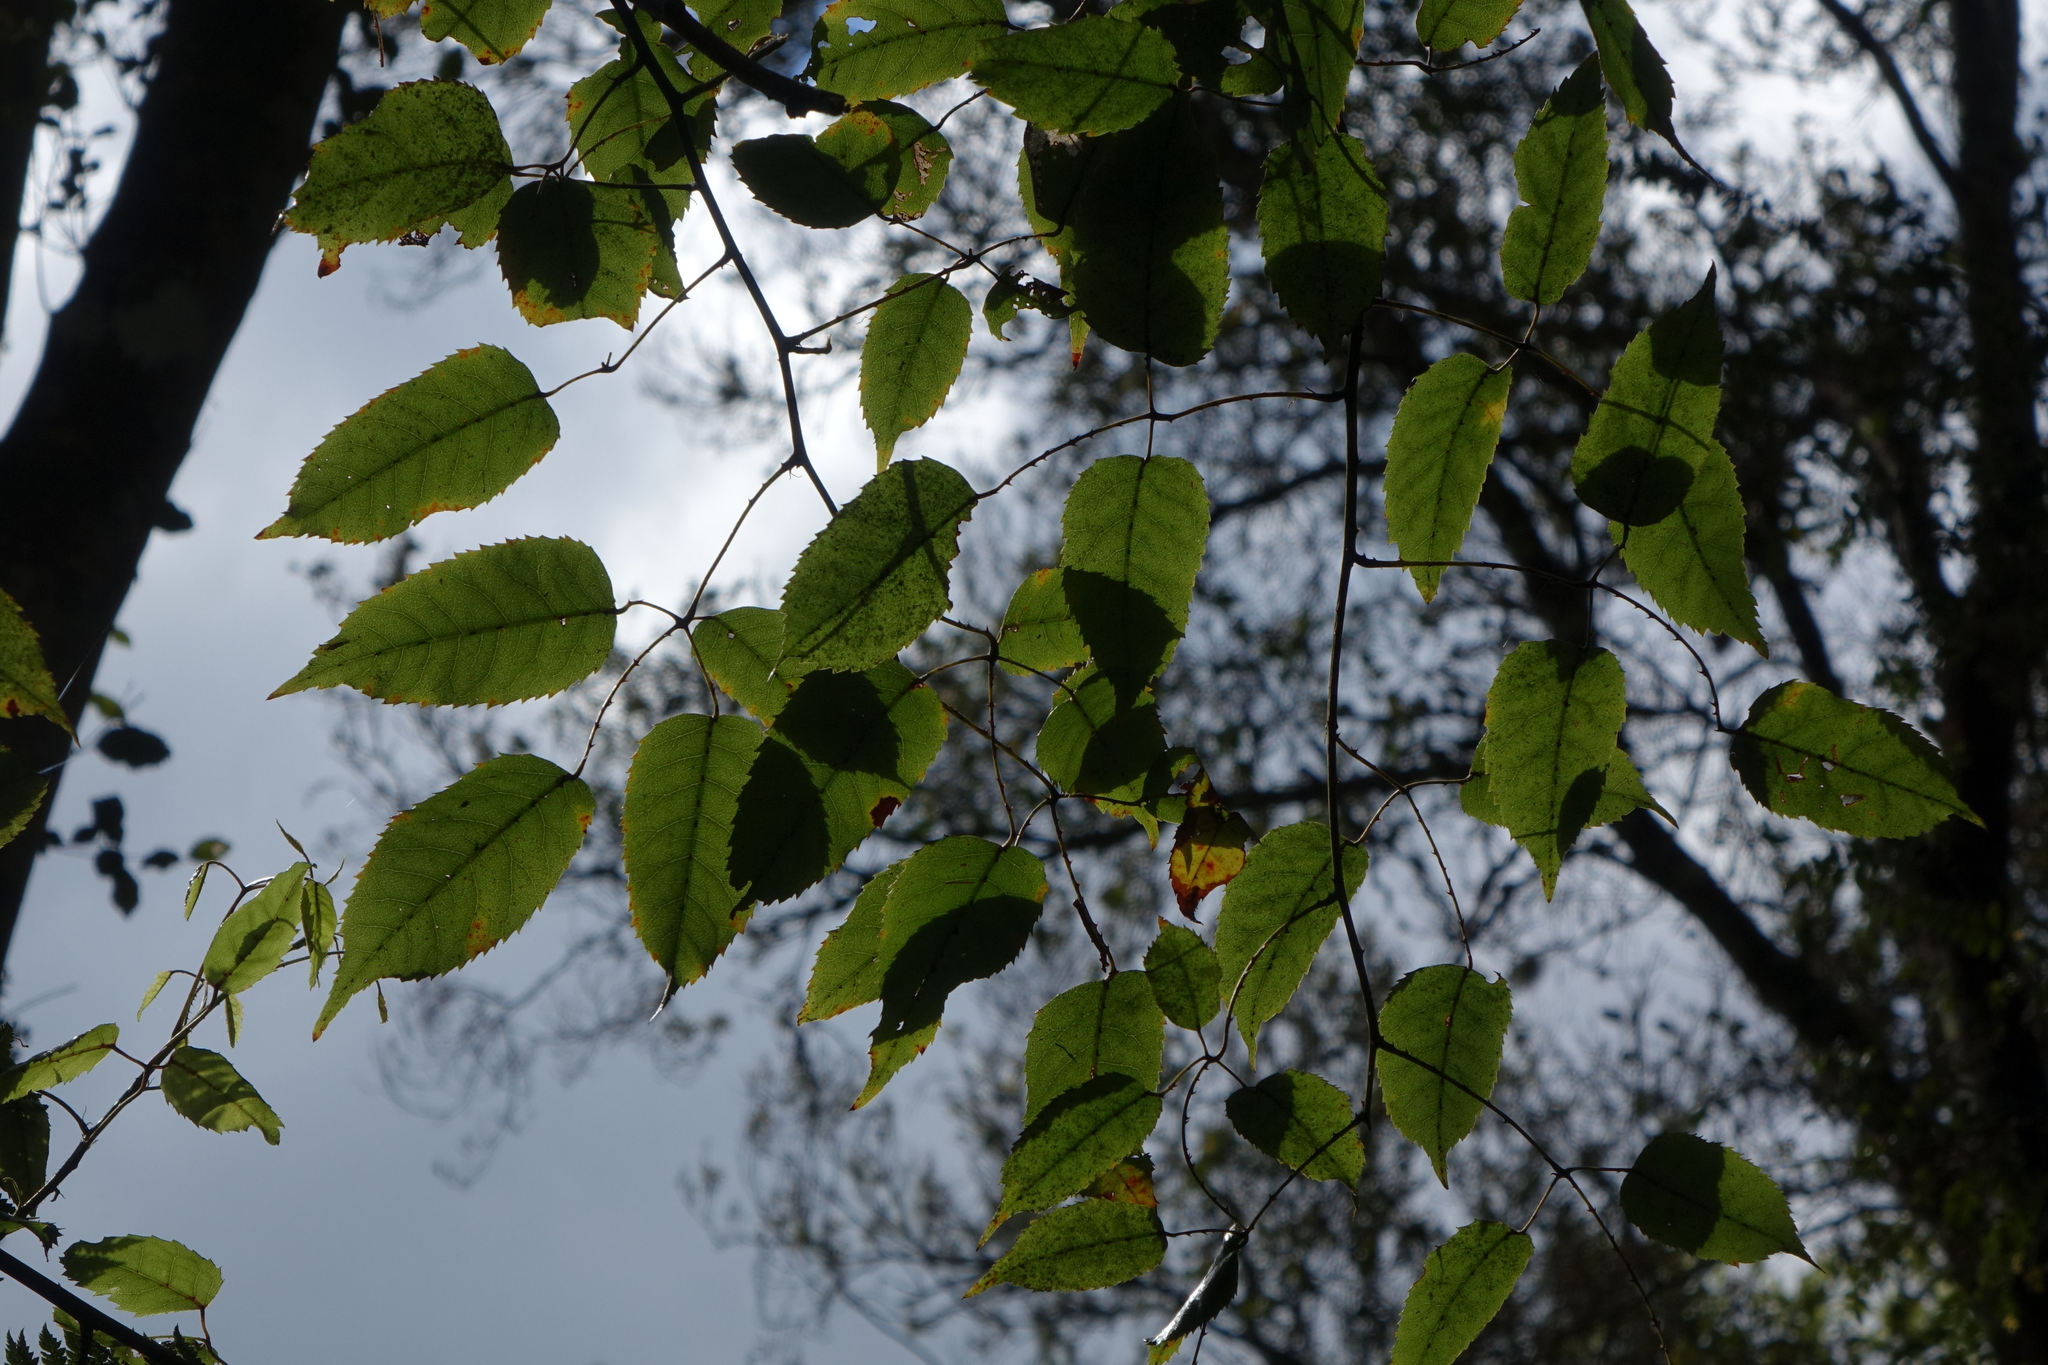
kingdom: Plantae
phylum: Tracheophyta
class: Magnoliopsida
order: Rosales
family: Rosaceae
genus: Rubus
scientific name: Rubus cissoides
